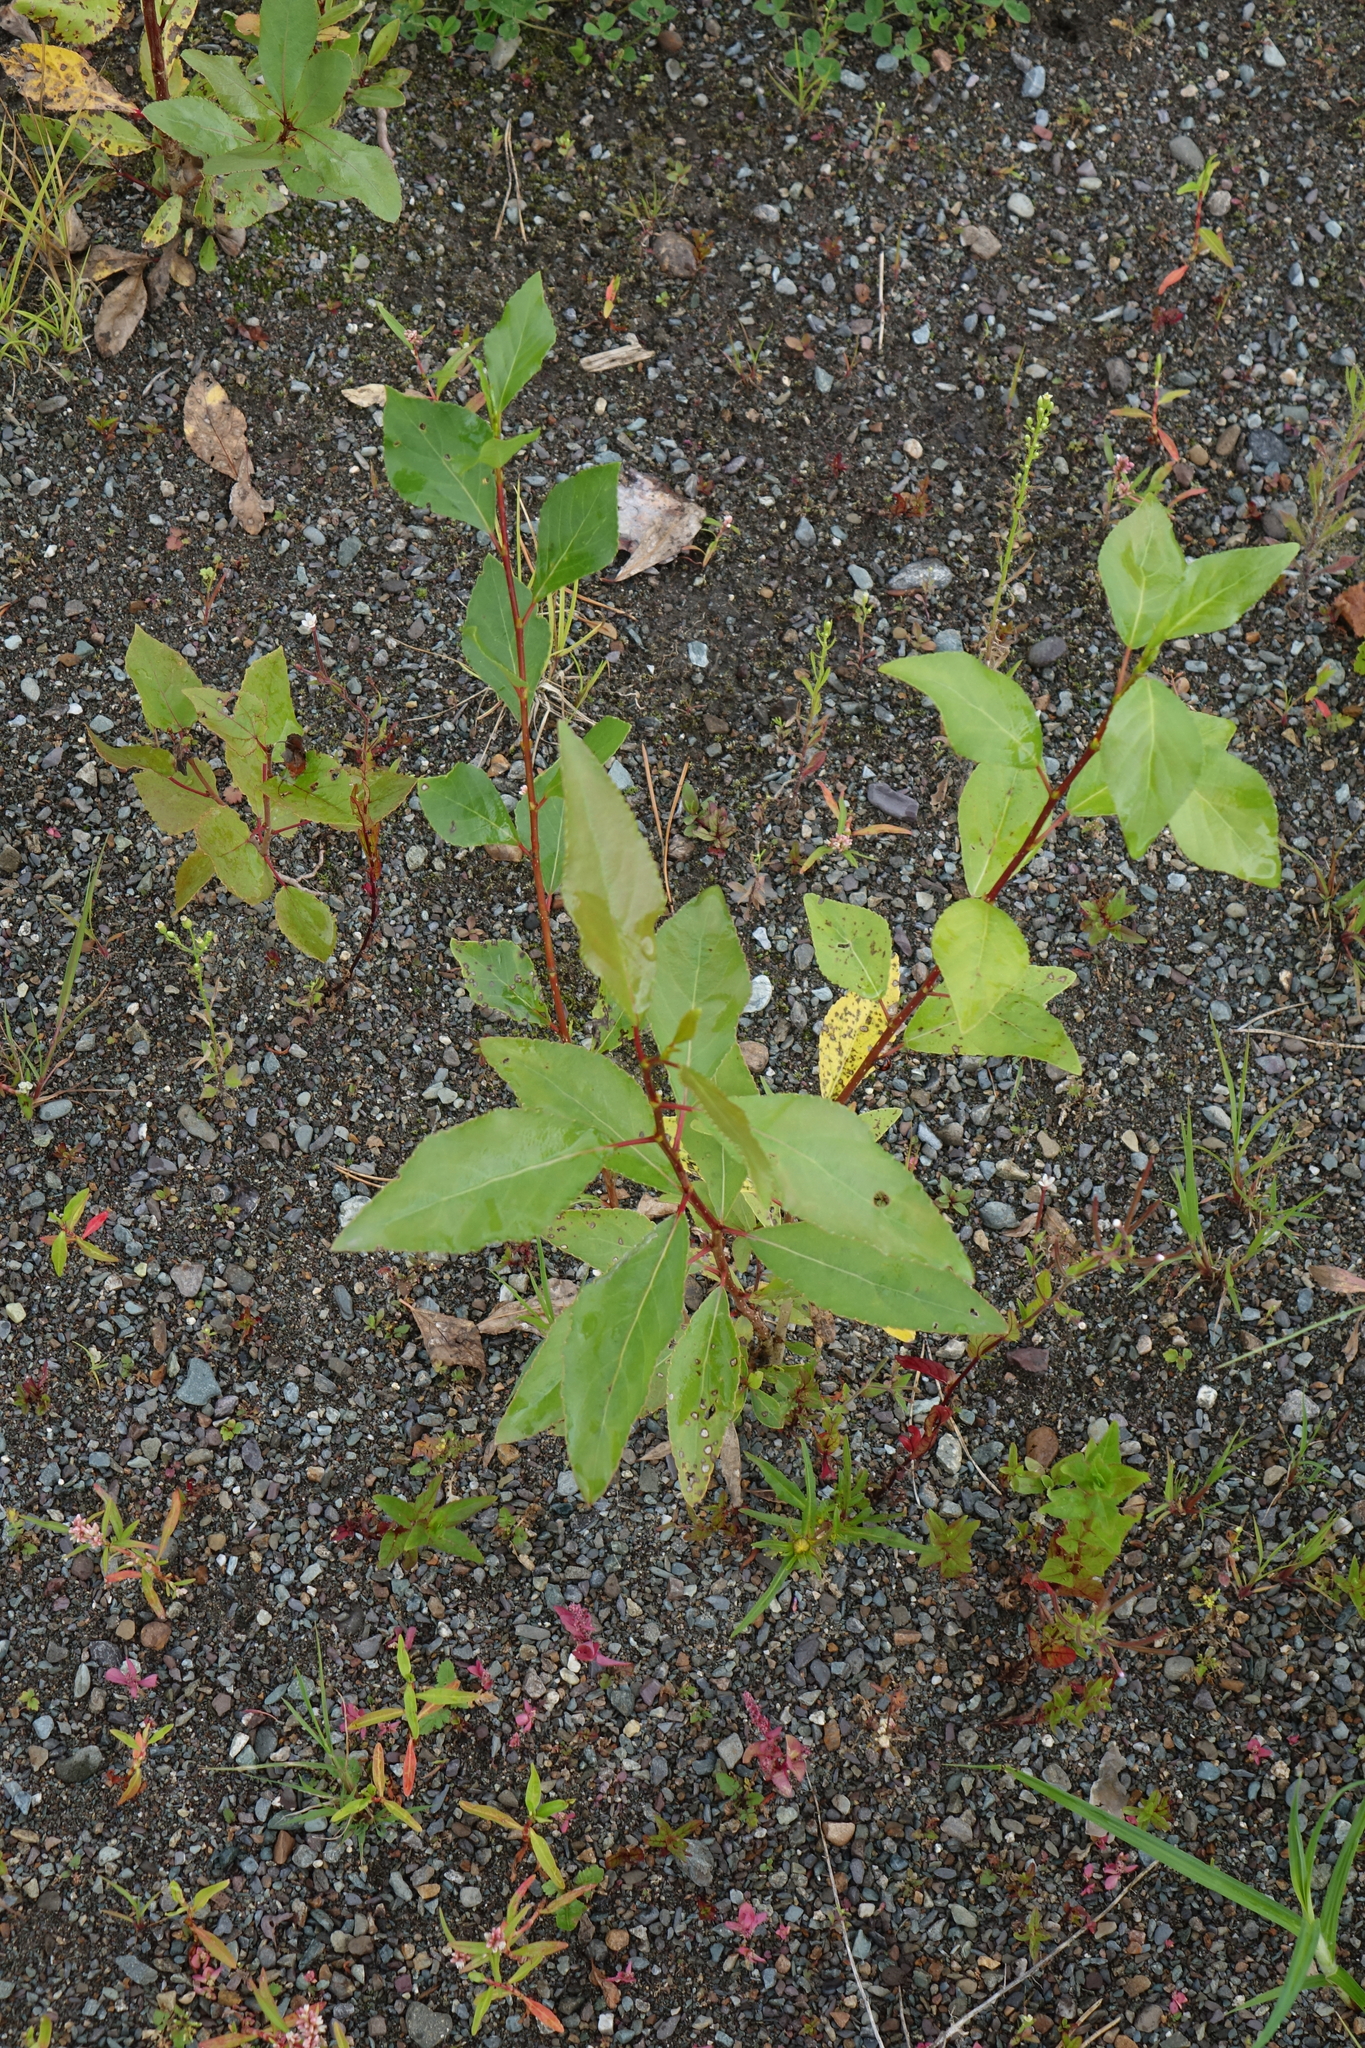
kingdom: Plantae
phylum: Tracheophyta
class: Magnoliopsida
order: Malpighiales
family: Salicaceae
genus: Populus
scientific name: Populus laurifolia
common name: Laurel-leaf poplar
